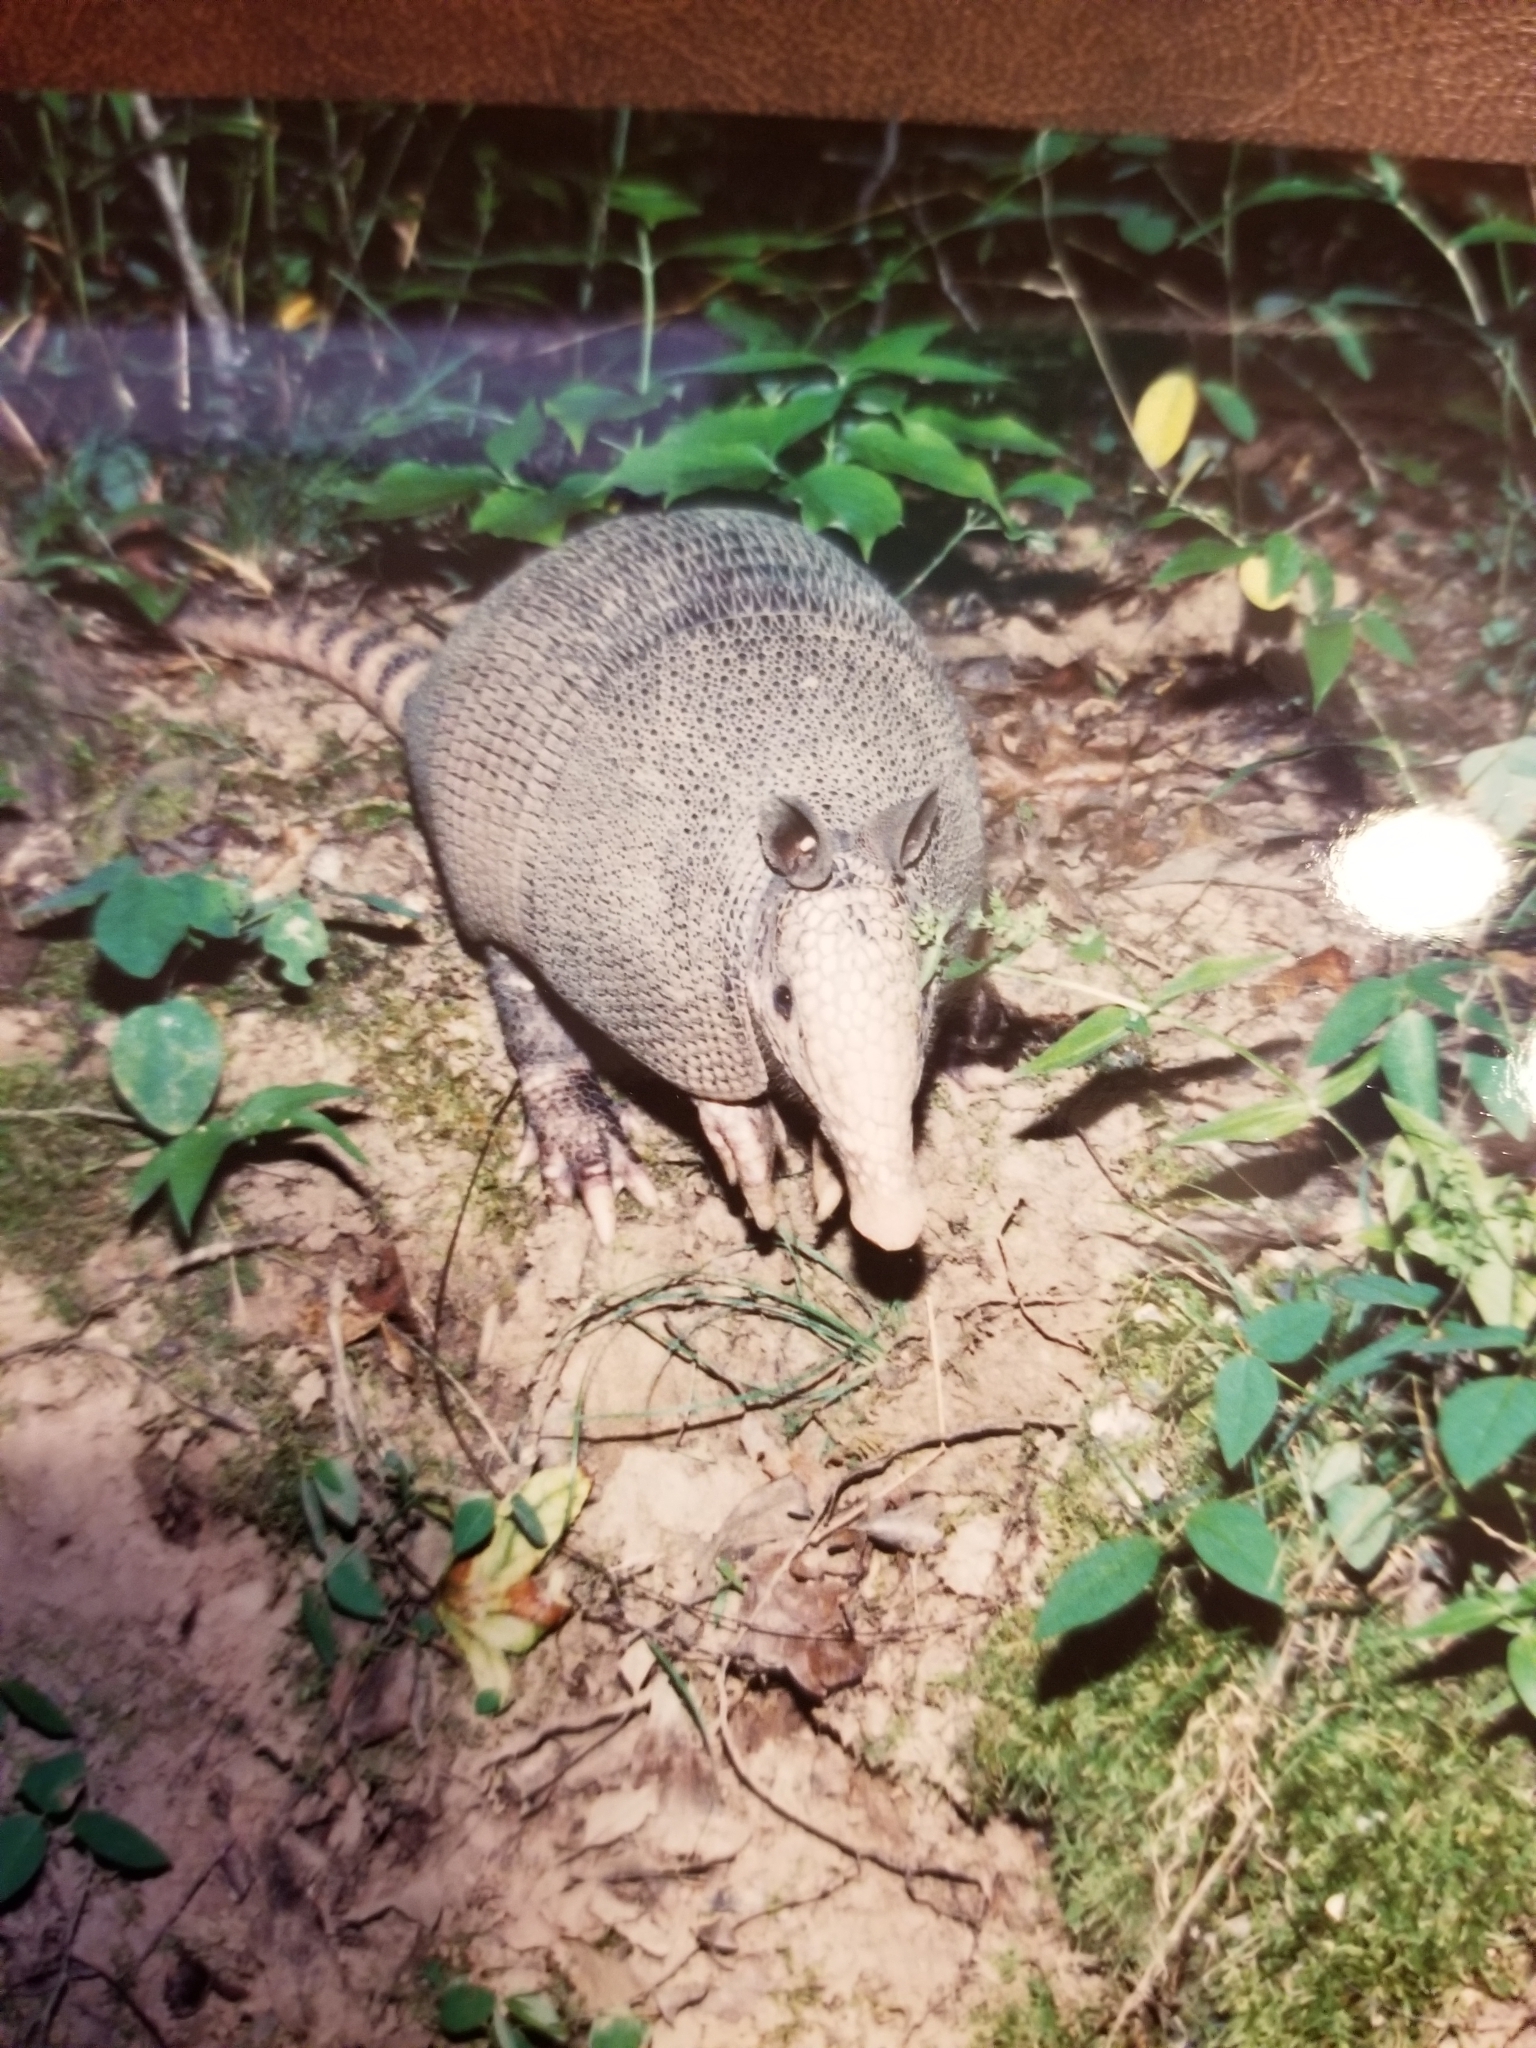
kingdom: Animalia
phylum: Chordata
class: Mammalia
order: Cingulata
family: Dasypodidae
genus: Dasypus
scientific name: Dasypus novemcinctus
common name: Nine-banded armadillo
